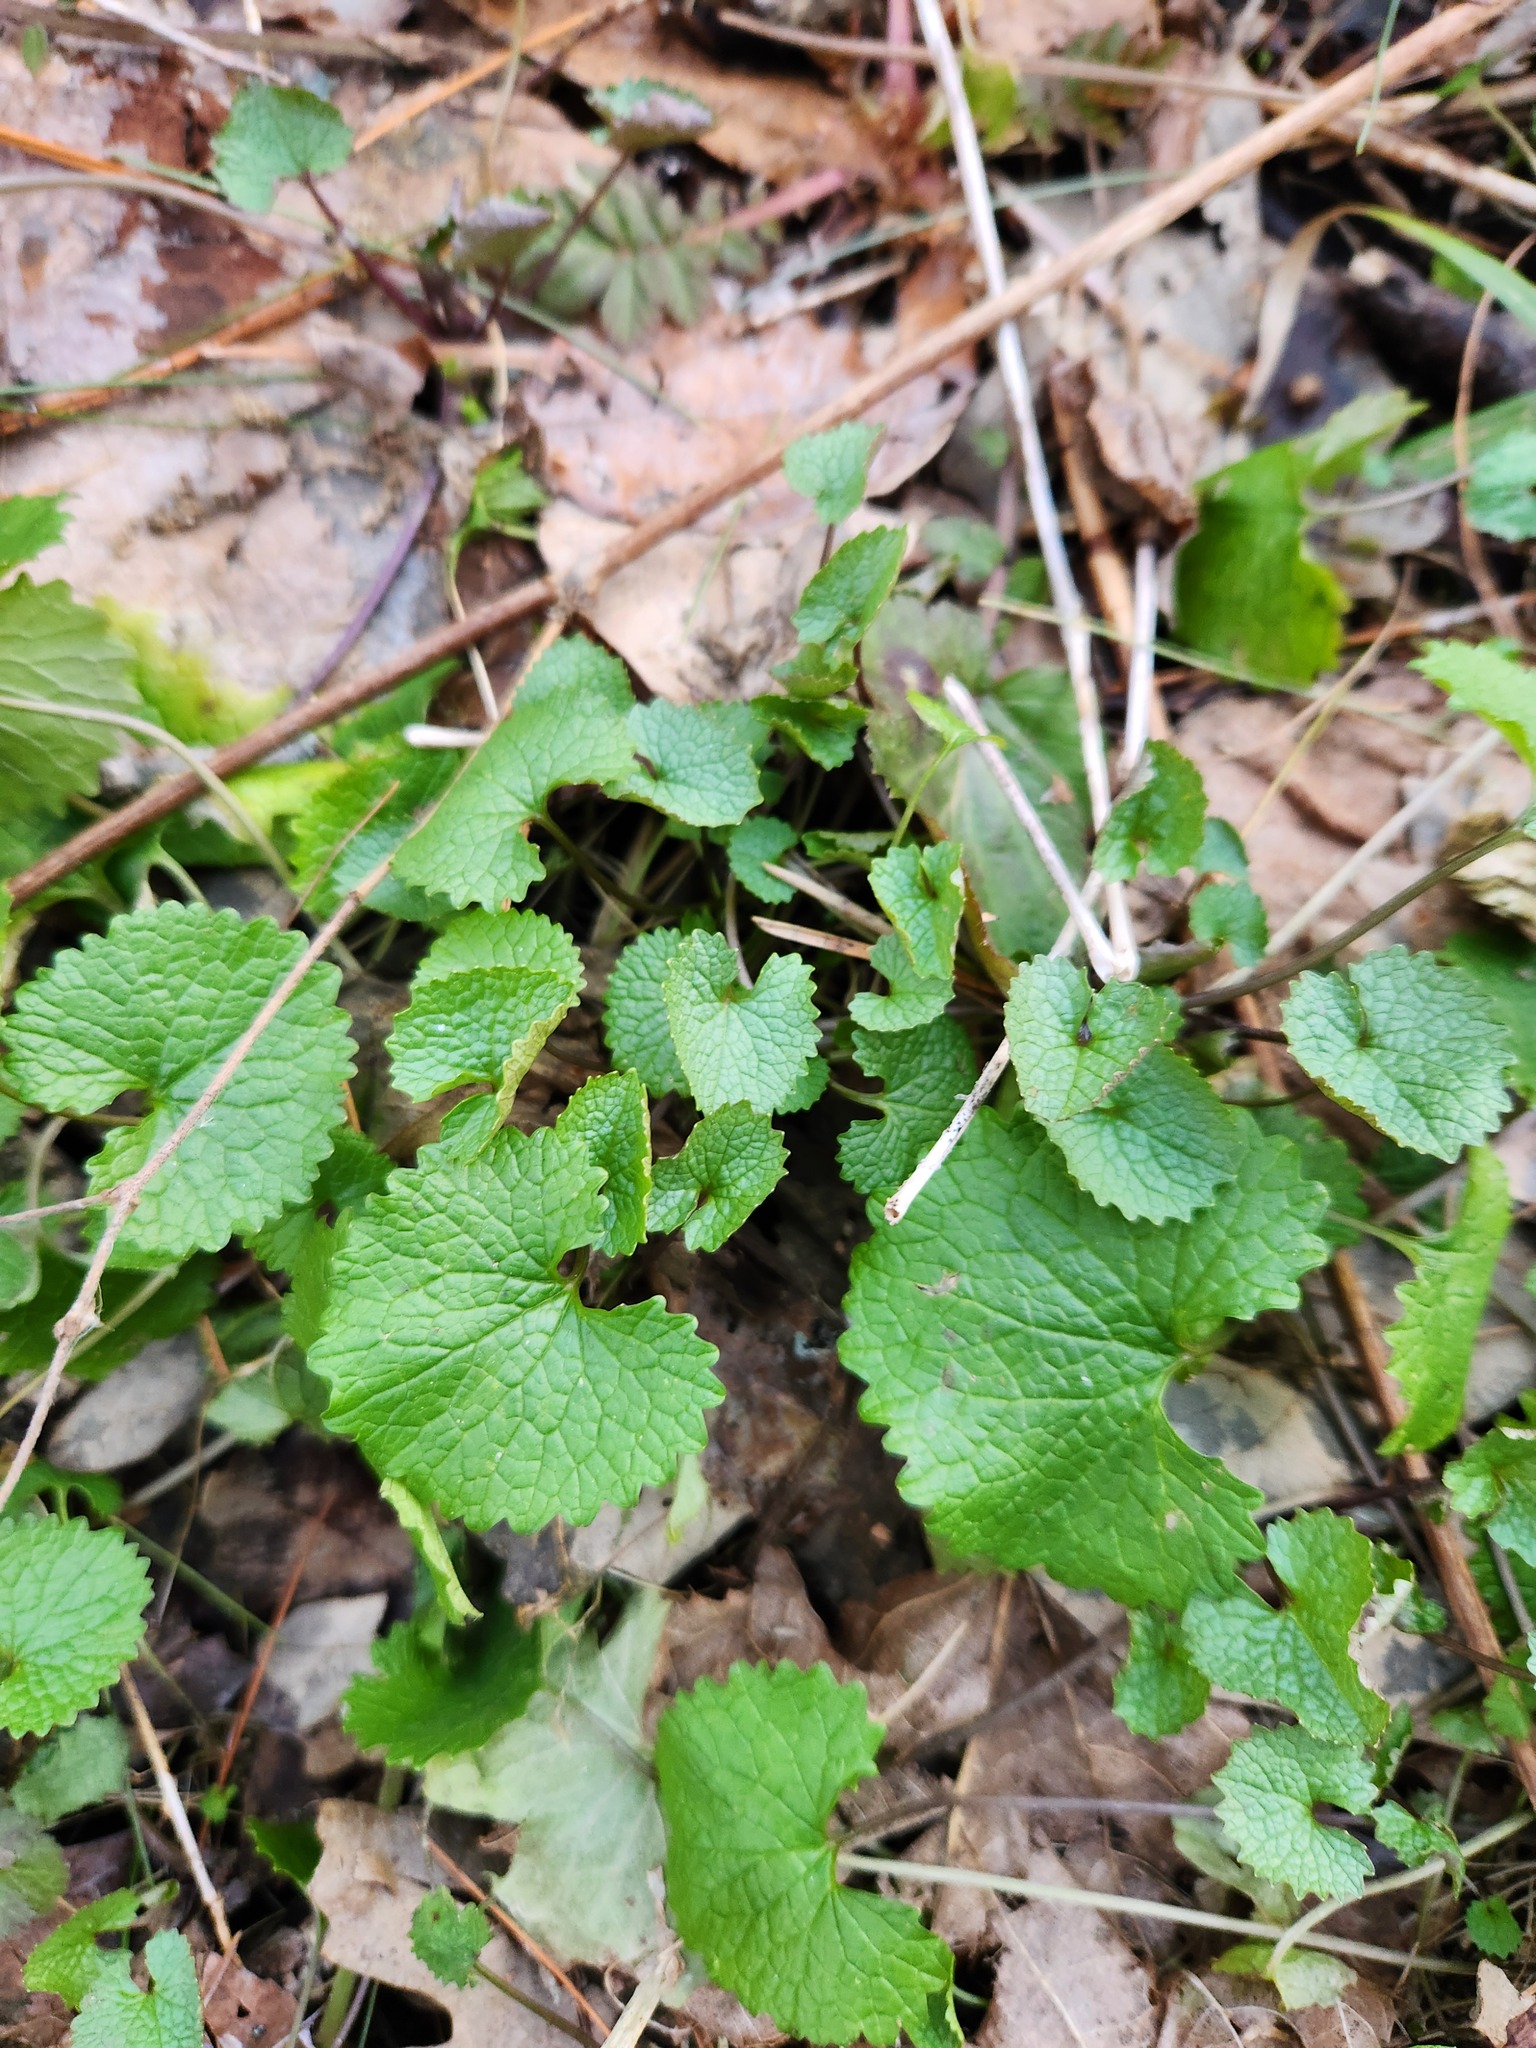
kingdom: Plantae
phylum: Tracheophyta
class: Magnoliopsida
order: Brassicales
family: Brassicaceae
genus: Alliaria
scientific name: Alliaria petiolata
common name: Garlic mustard
